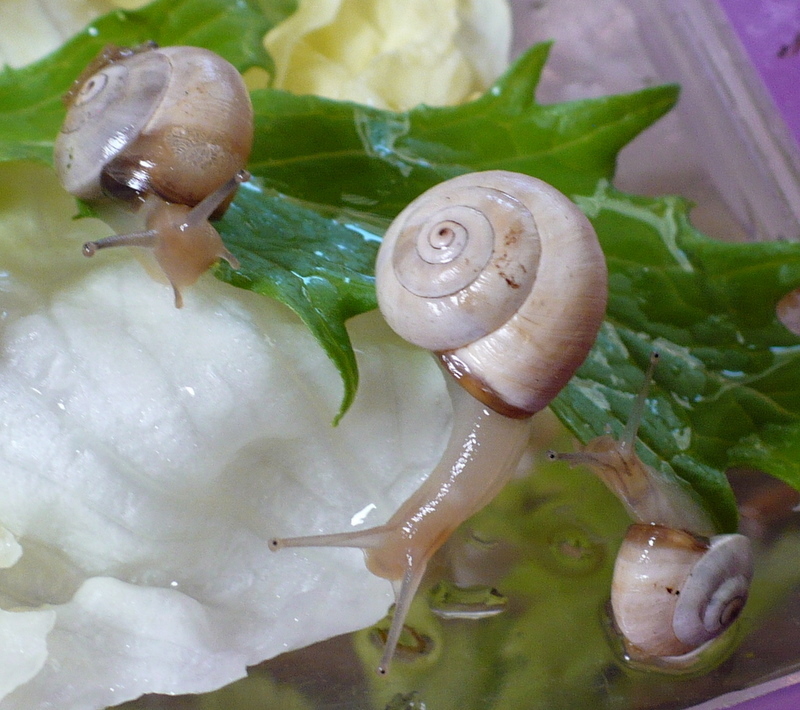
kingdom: Animalia
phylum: Mollusca
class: Gastropoda
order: Stylommatophora
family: Helicidae
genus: Theba
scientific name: Theba pisana
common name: White snail
